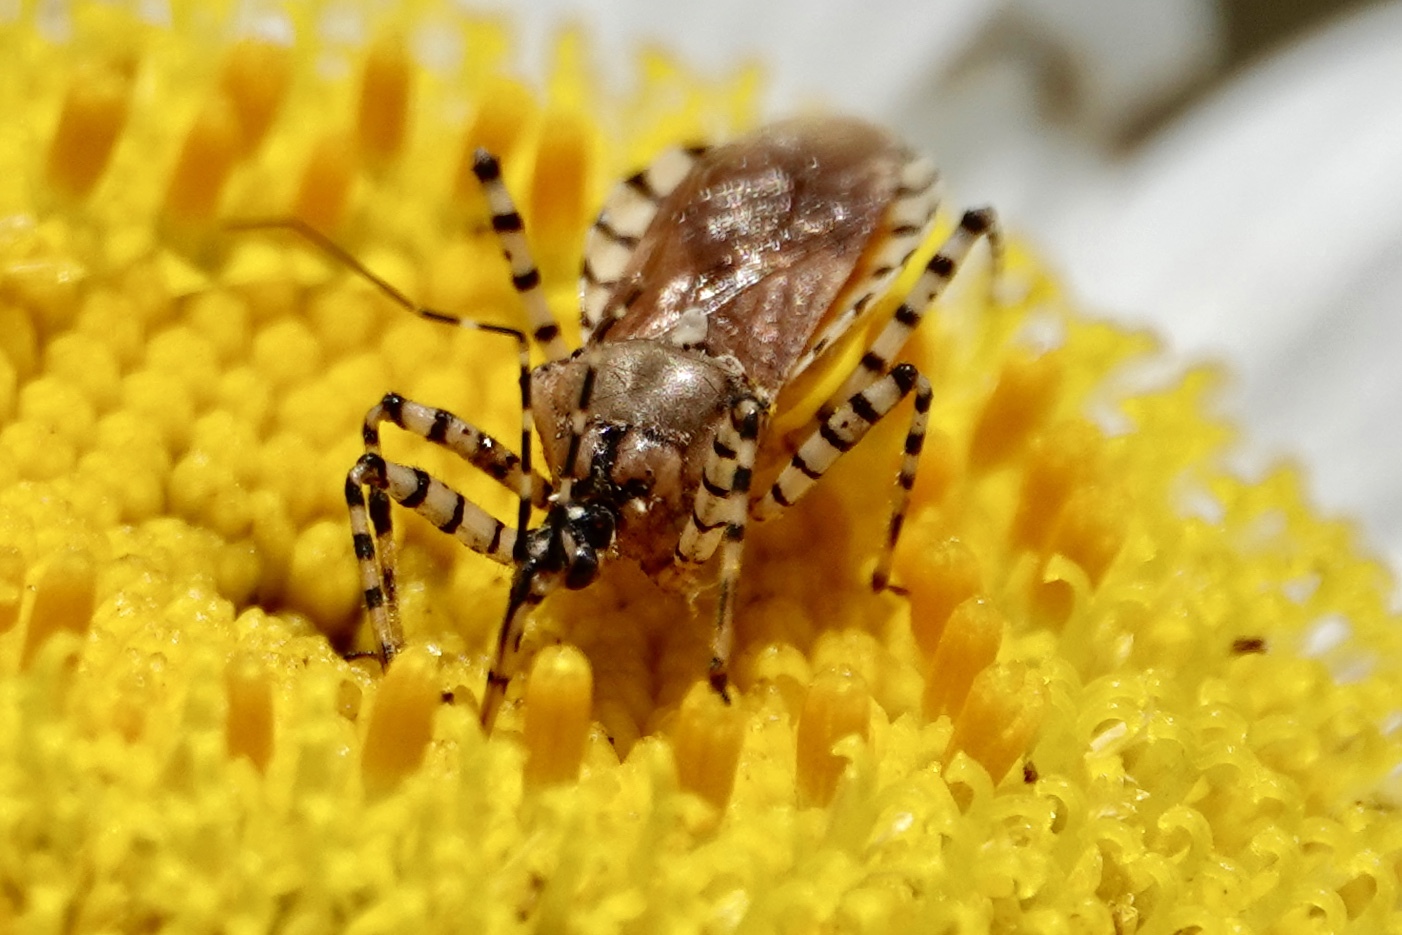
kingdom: Animalia
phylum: Arthropoda
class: Insecta
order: Hemiptera
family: Reduviidae
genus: Pselliopus
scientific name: Pselliopus cinctus
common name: Ringed assassin bug
